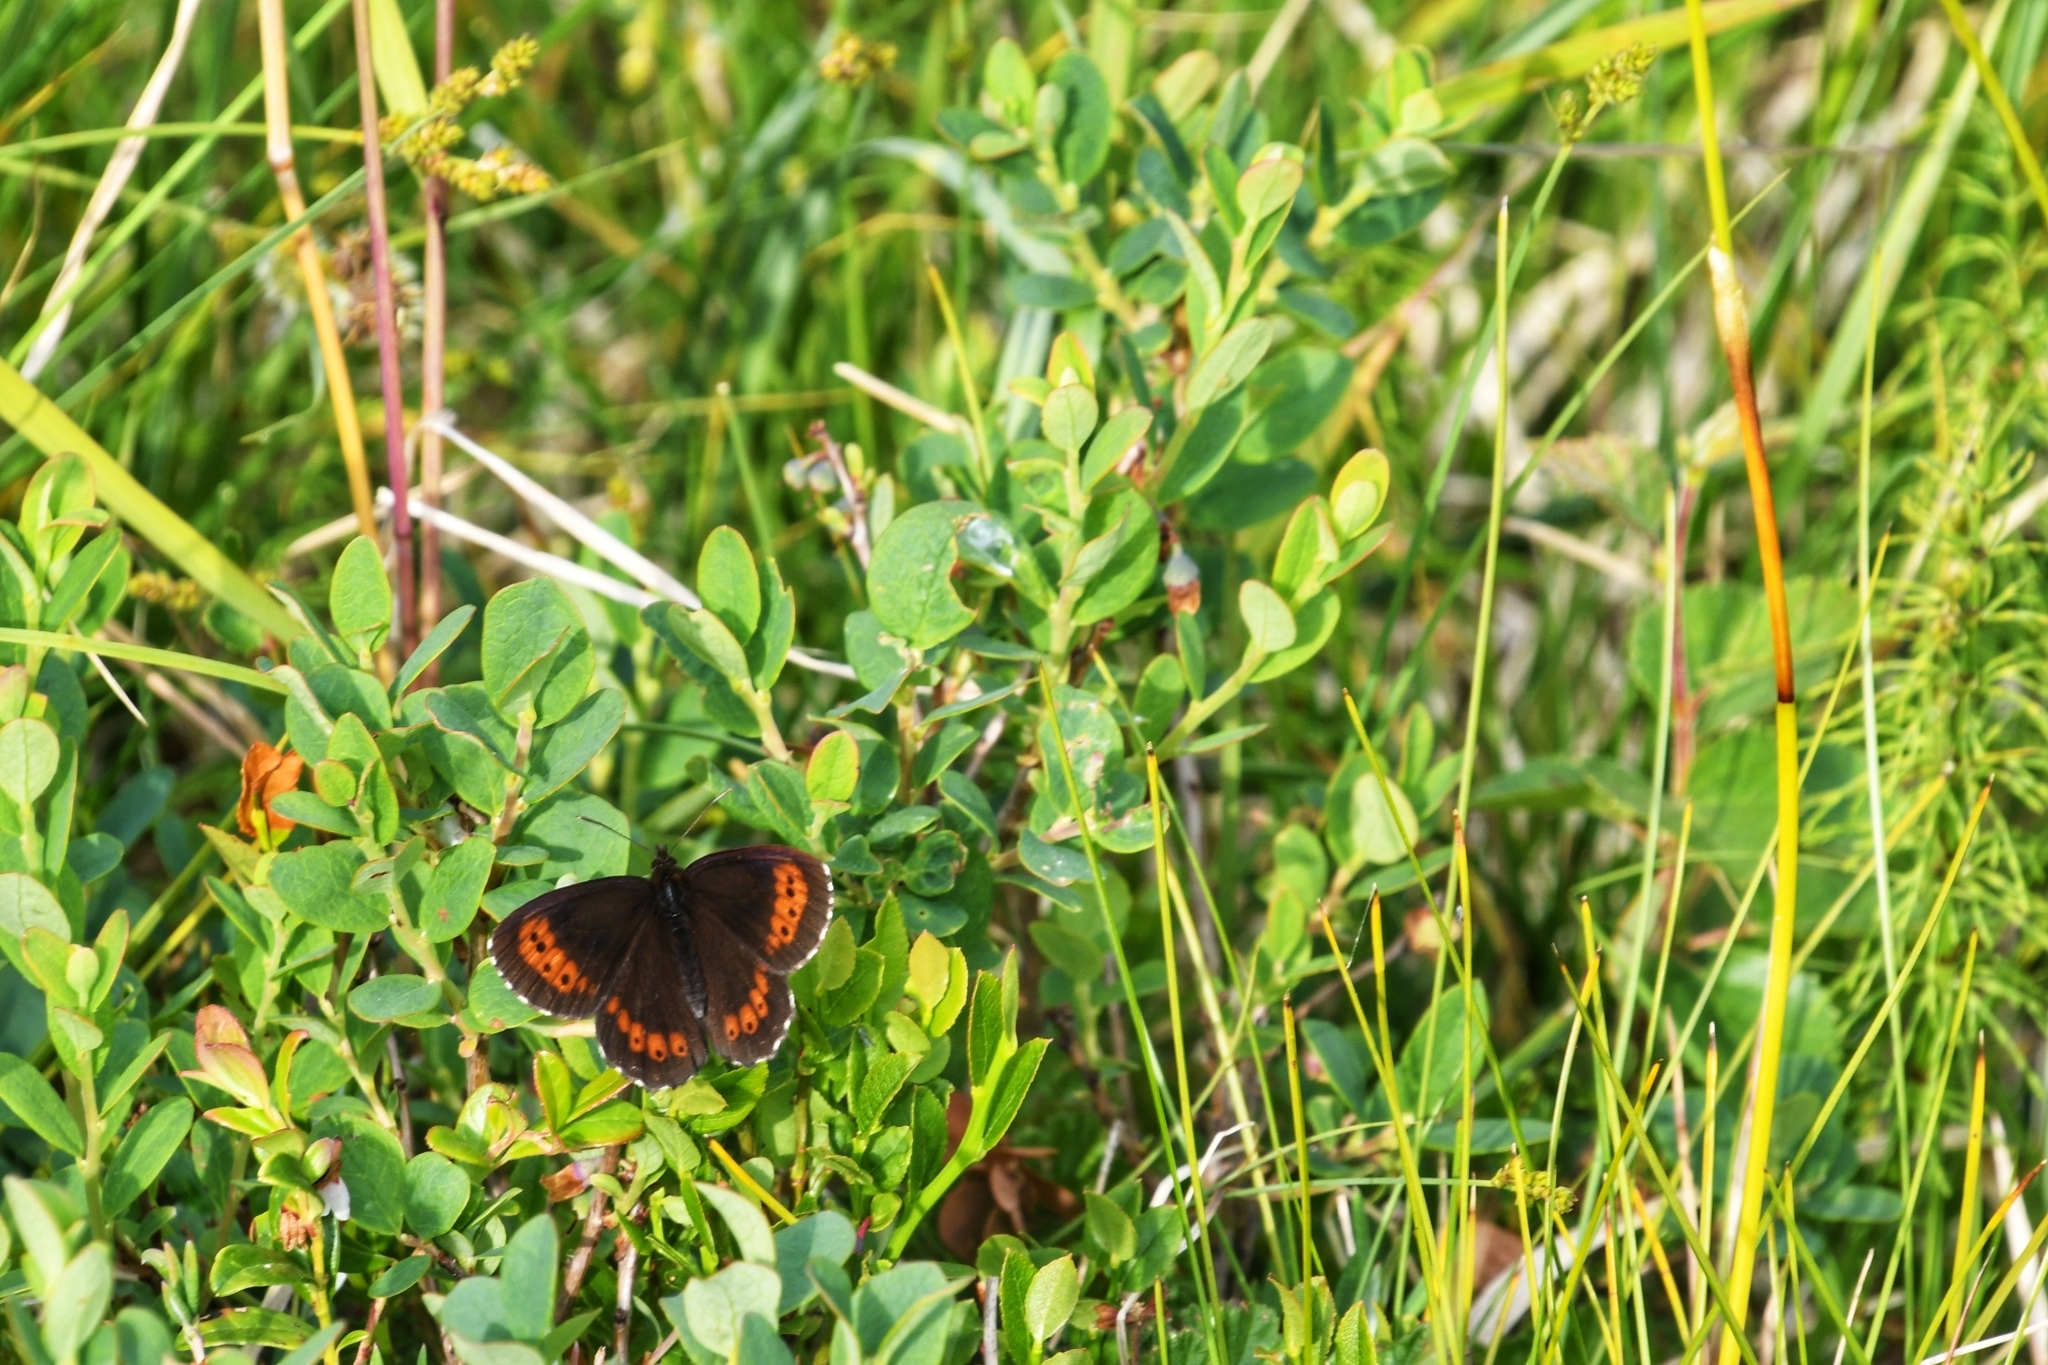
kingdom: Animalia
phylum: Arthropoda
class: Insecta
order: Lepidoptera
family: Nymphalidae
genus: Erebia
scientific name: Erebia ligea
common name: Arran brown
